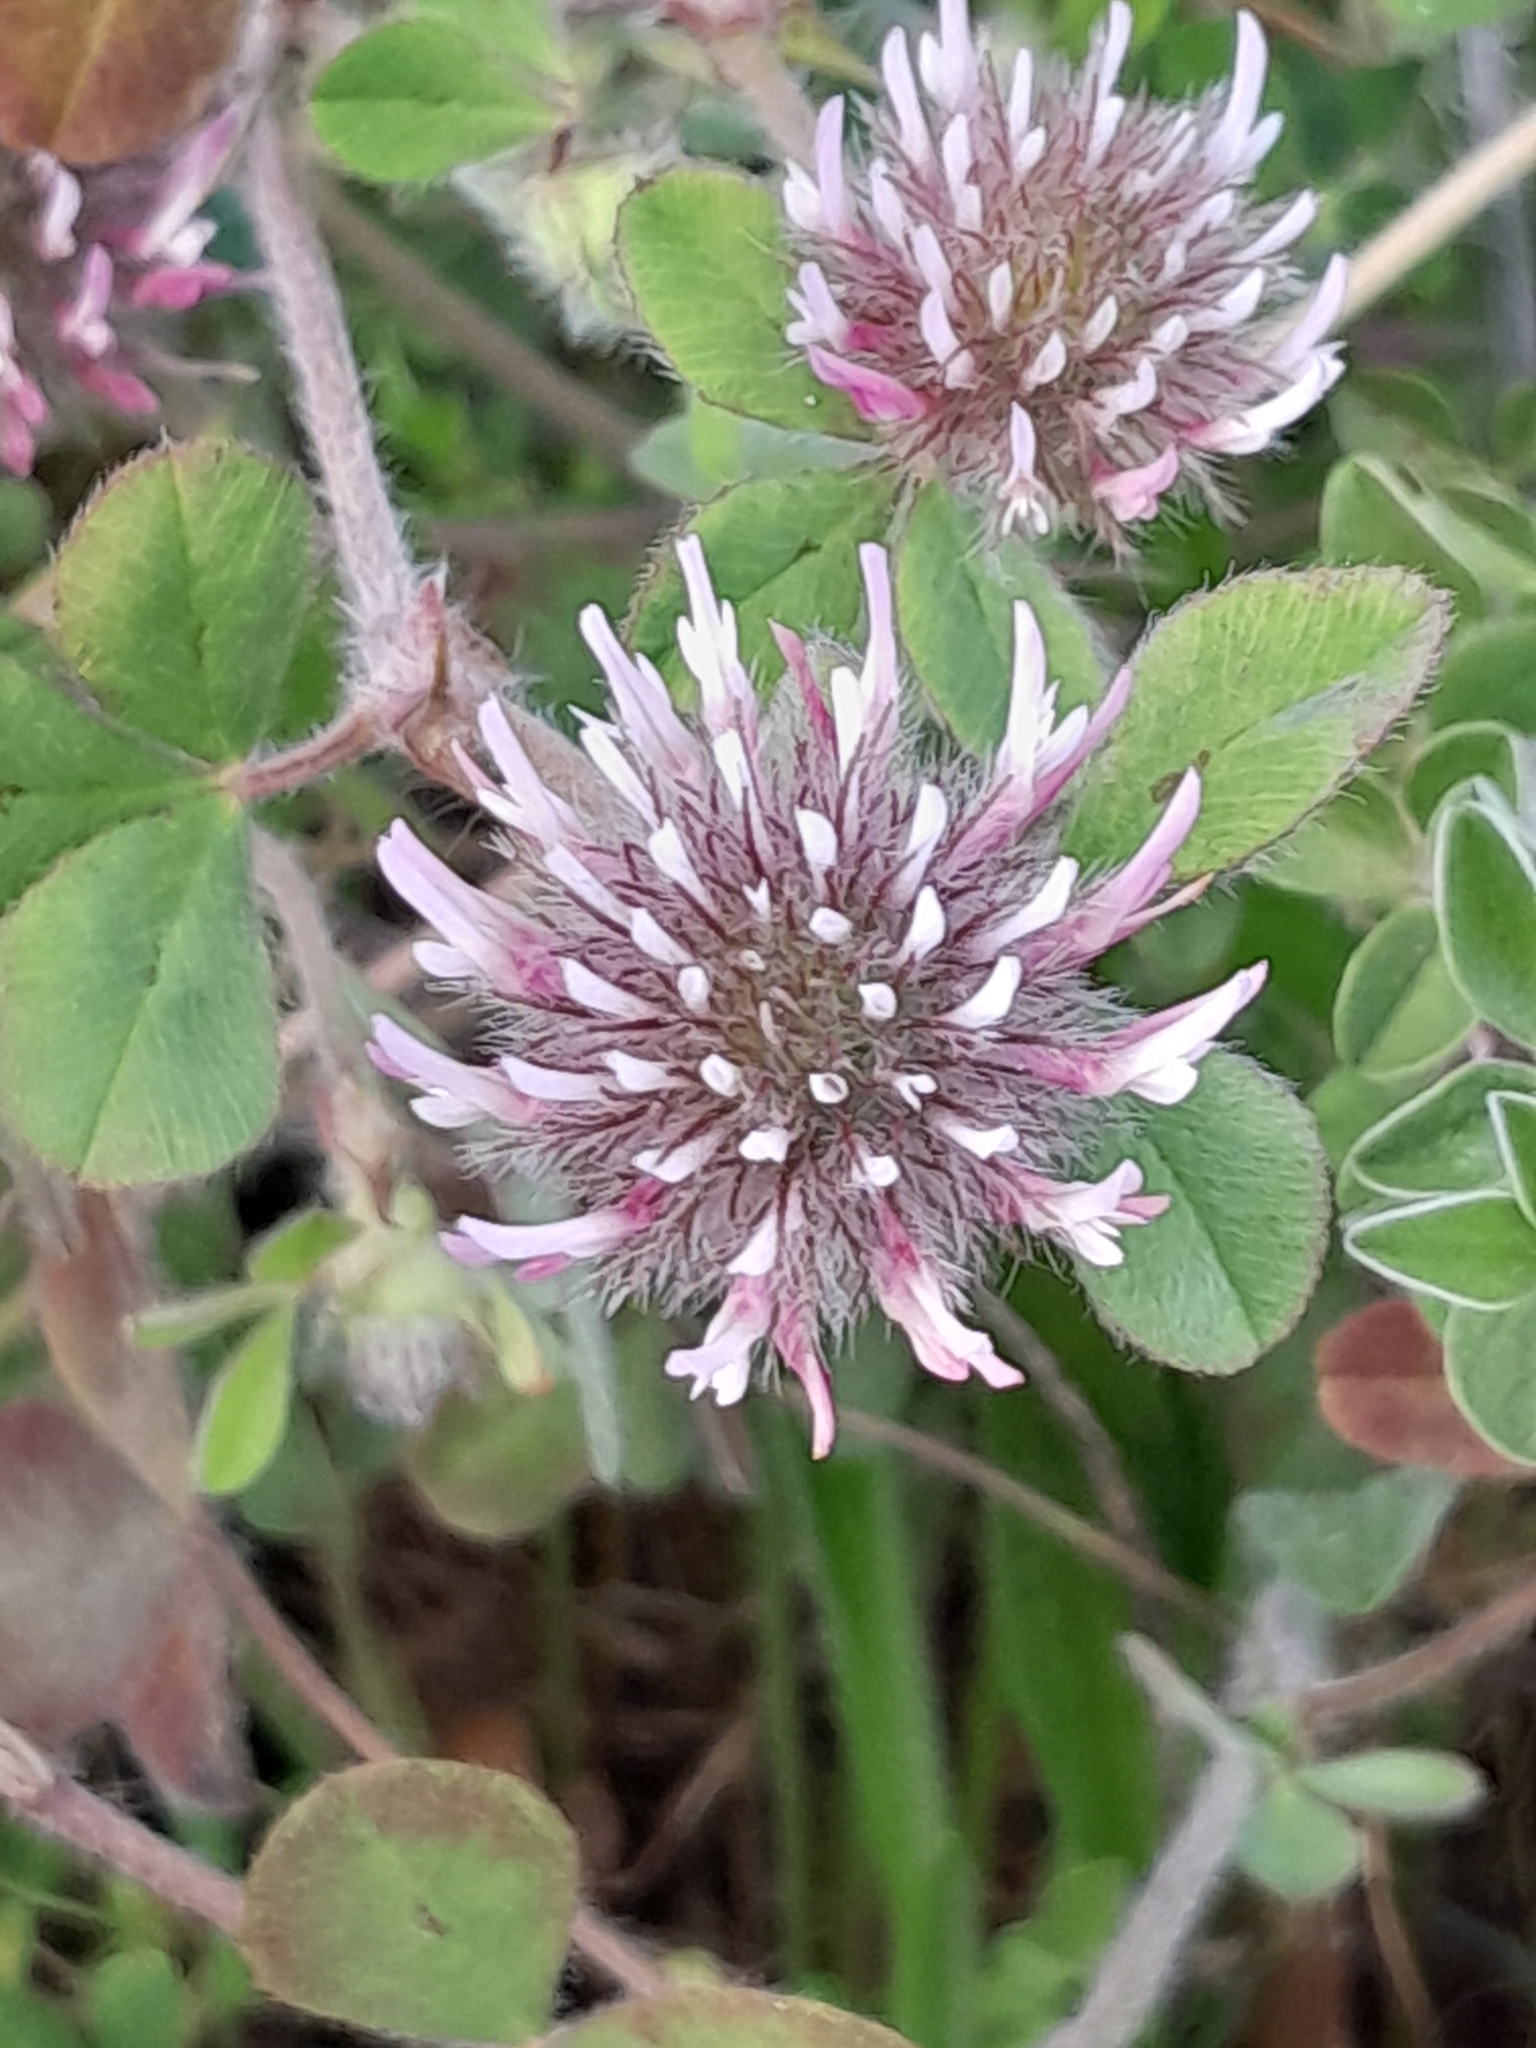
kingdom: Plantae
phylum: Tracheophyta
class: Magnoliopsida
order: Fabales
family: Fabaceae
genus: Trifolium
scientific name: Trifolium hirtum
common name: Rose clover
